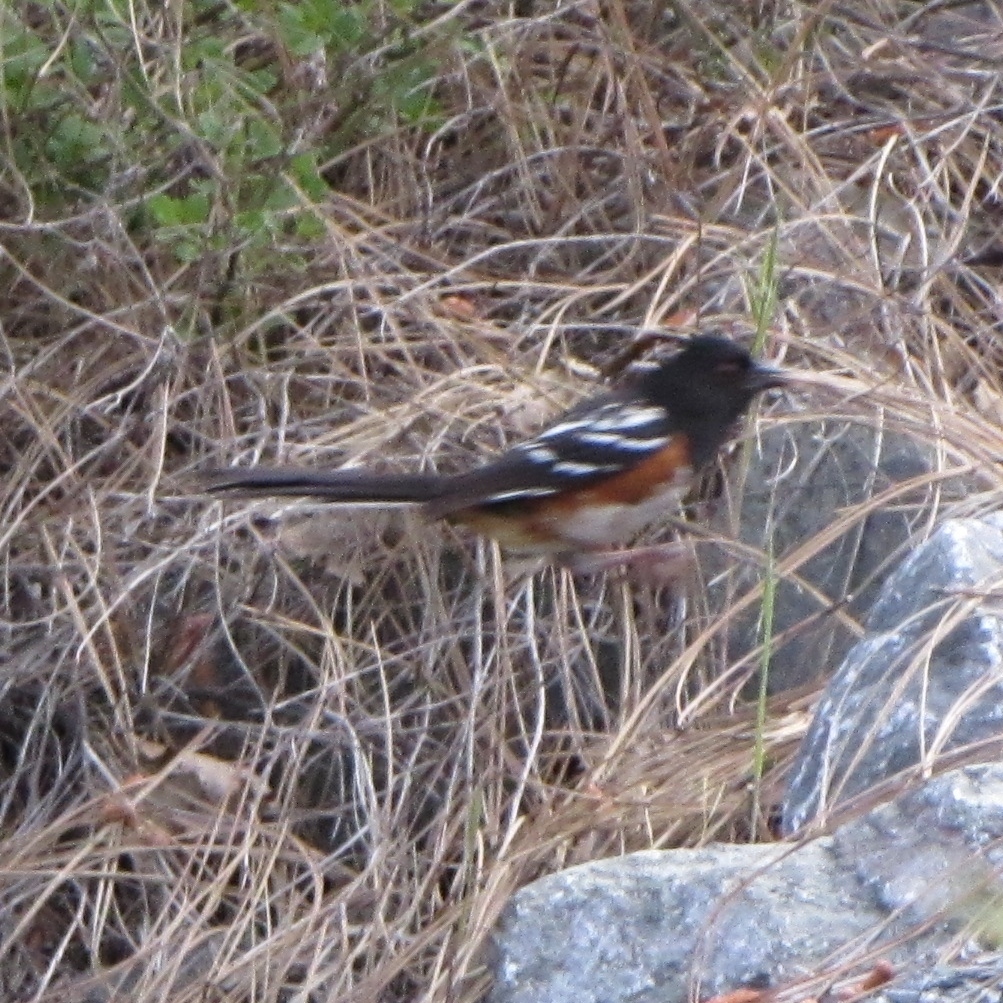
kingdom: Animalia
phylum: Chordata
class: Aves
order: Passeriformes
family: Passerellidae
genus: Pipilo
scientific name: Pipilo maculatus
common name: Spotted towhee
